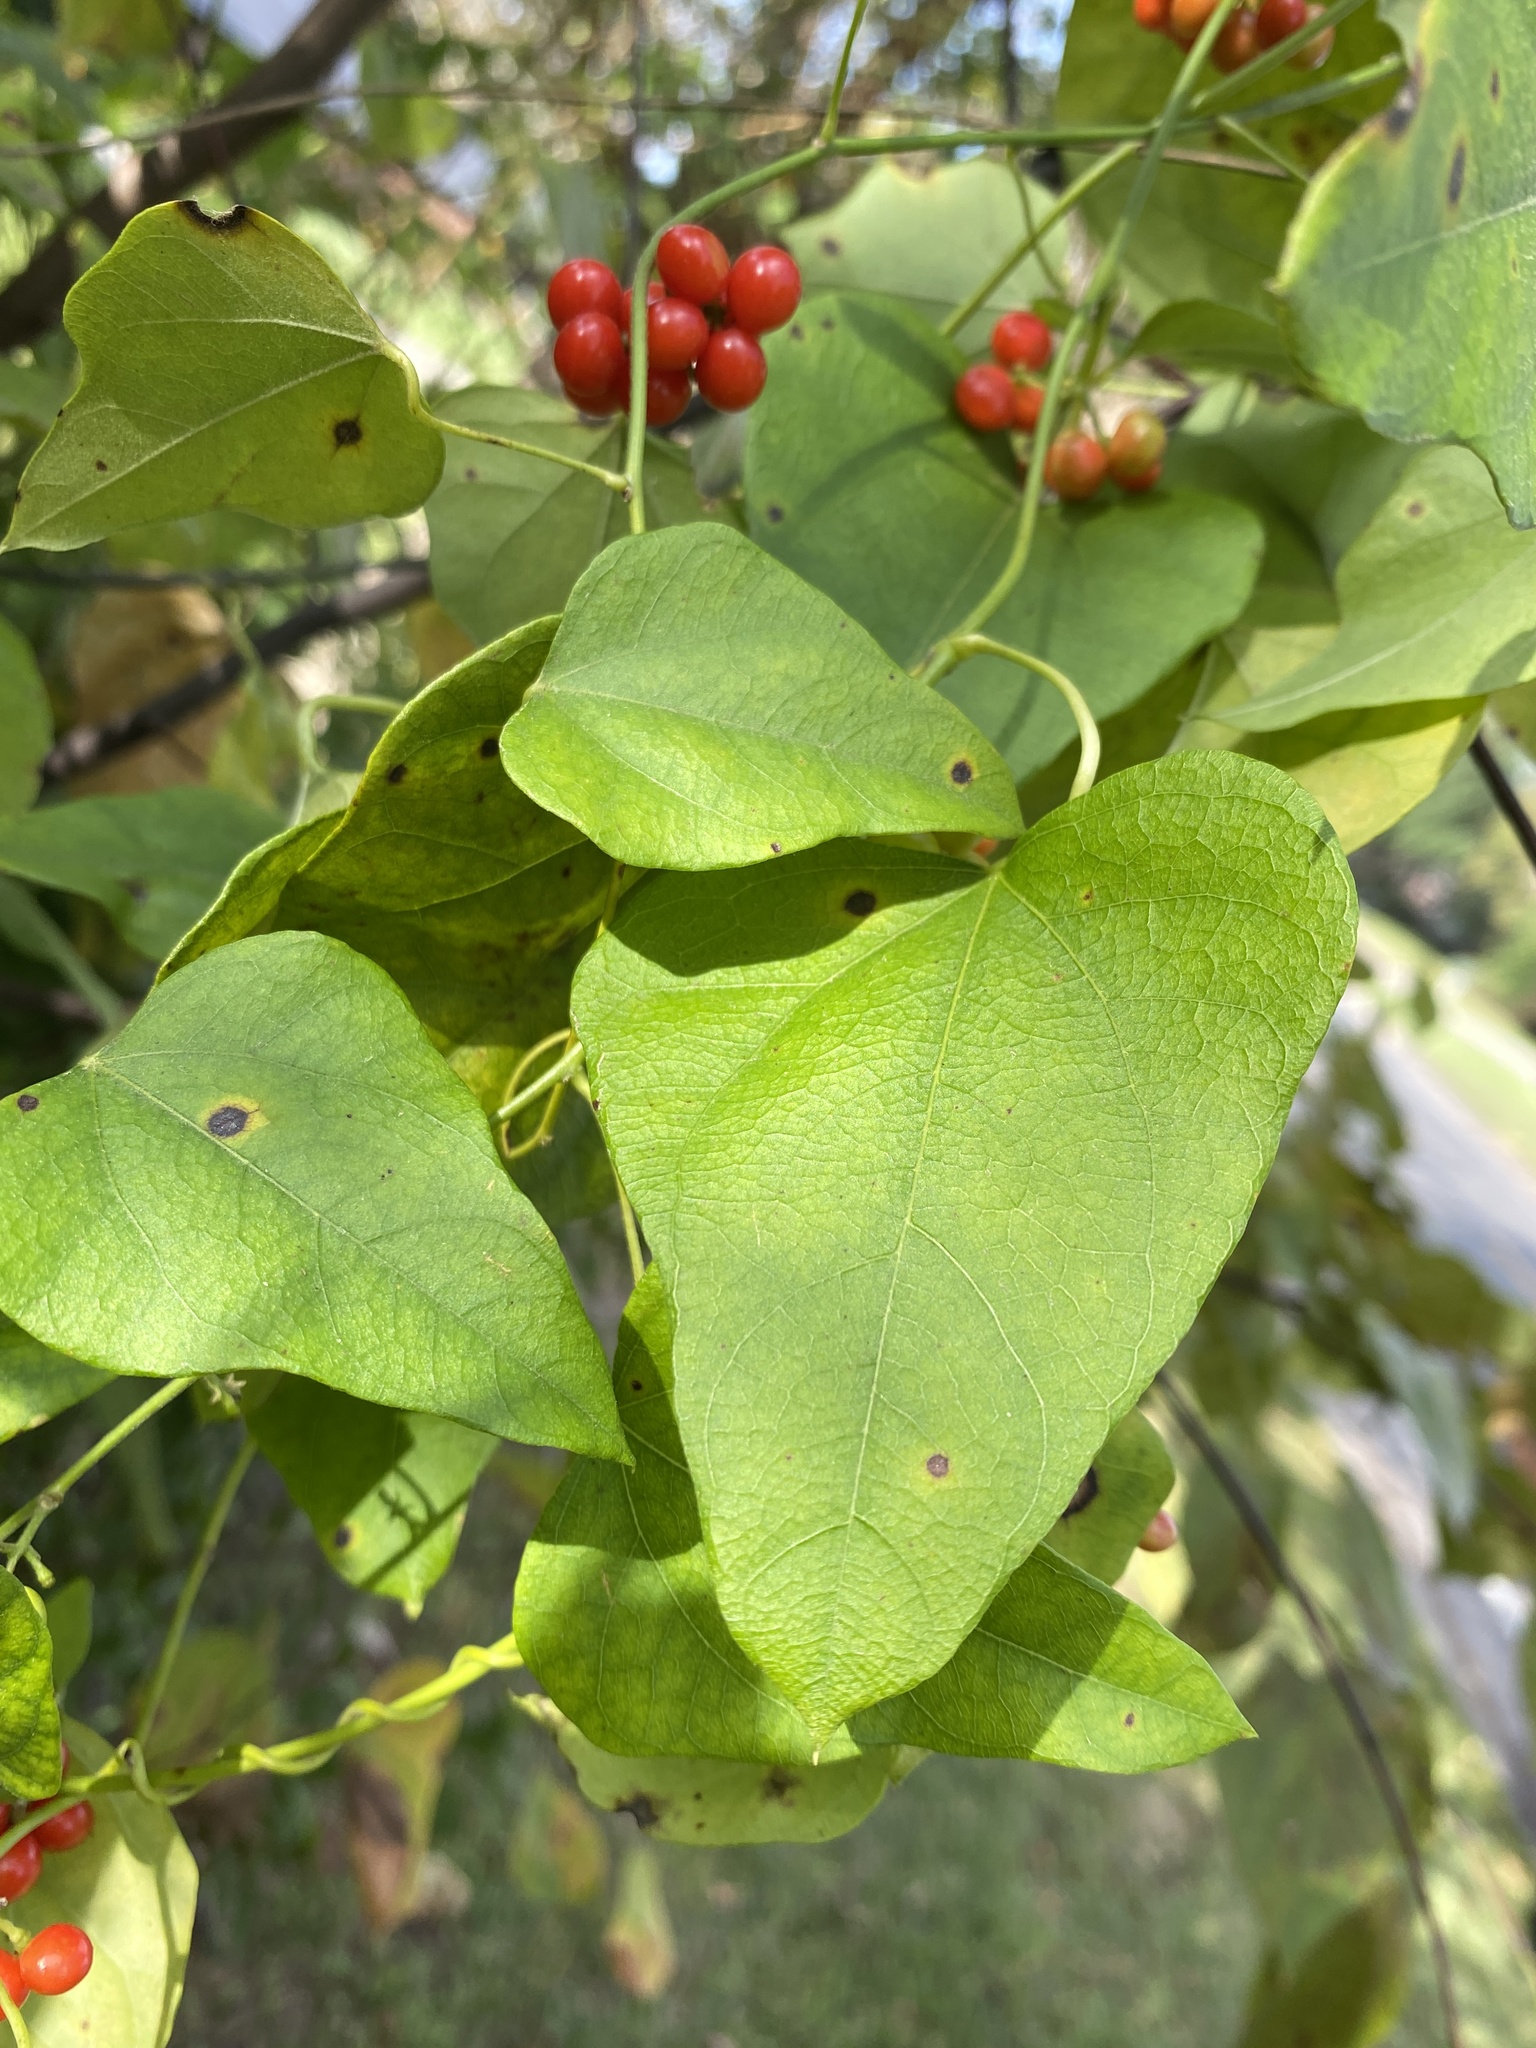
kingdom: Plantae
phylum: Tracheophyta
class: Magnoliopsida
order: Ranunculales
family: Menispermaceae
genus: Cocculus
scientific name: Cocculus carolinus
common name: Carolina moonseed
